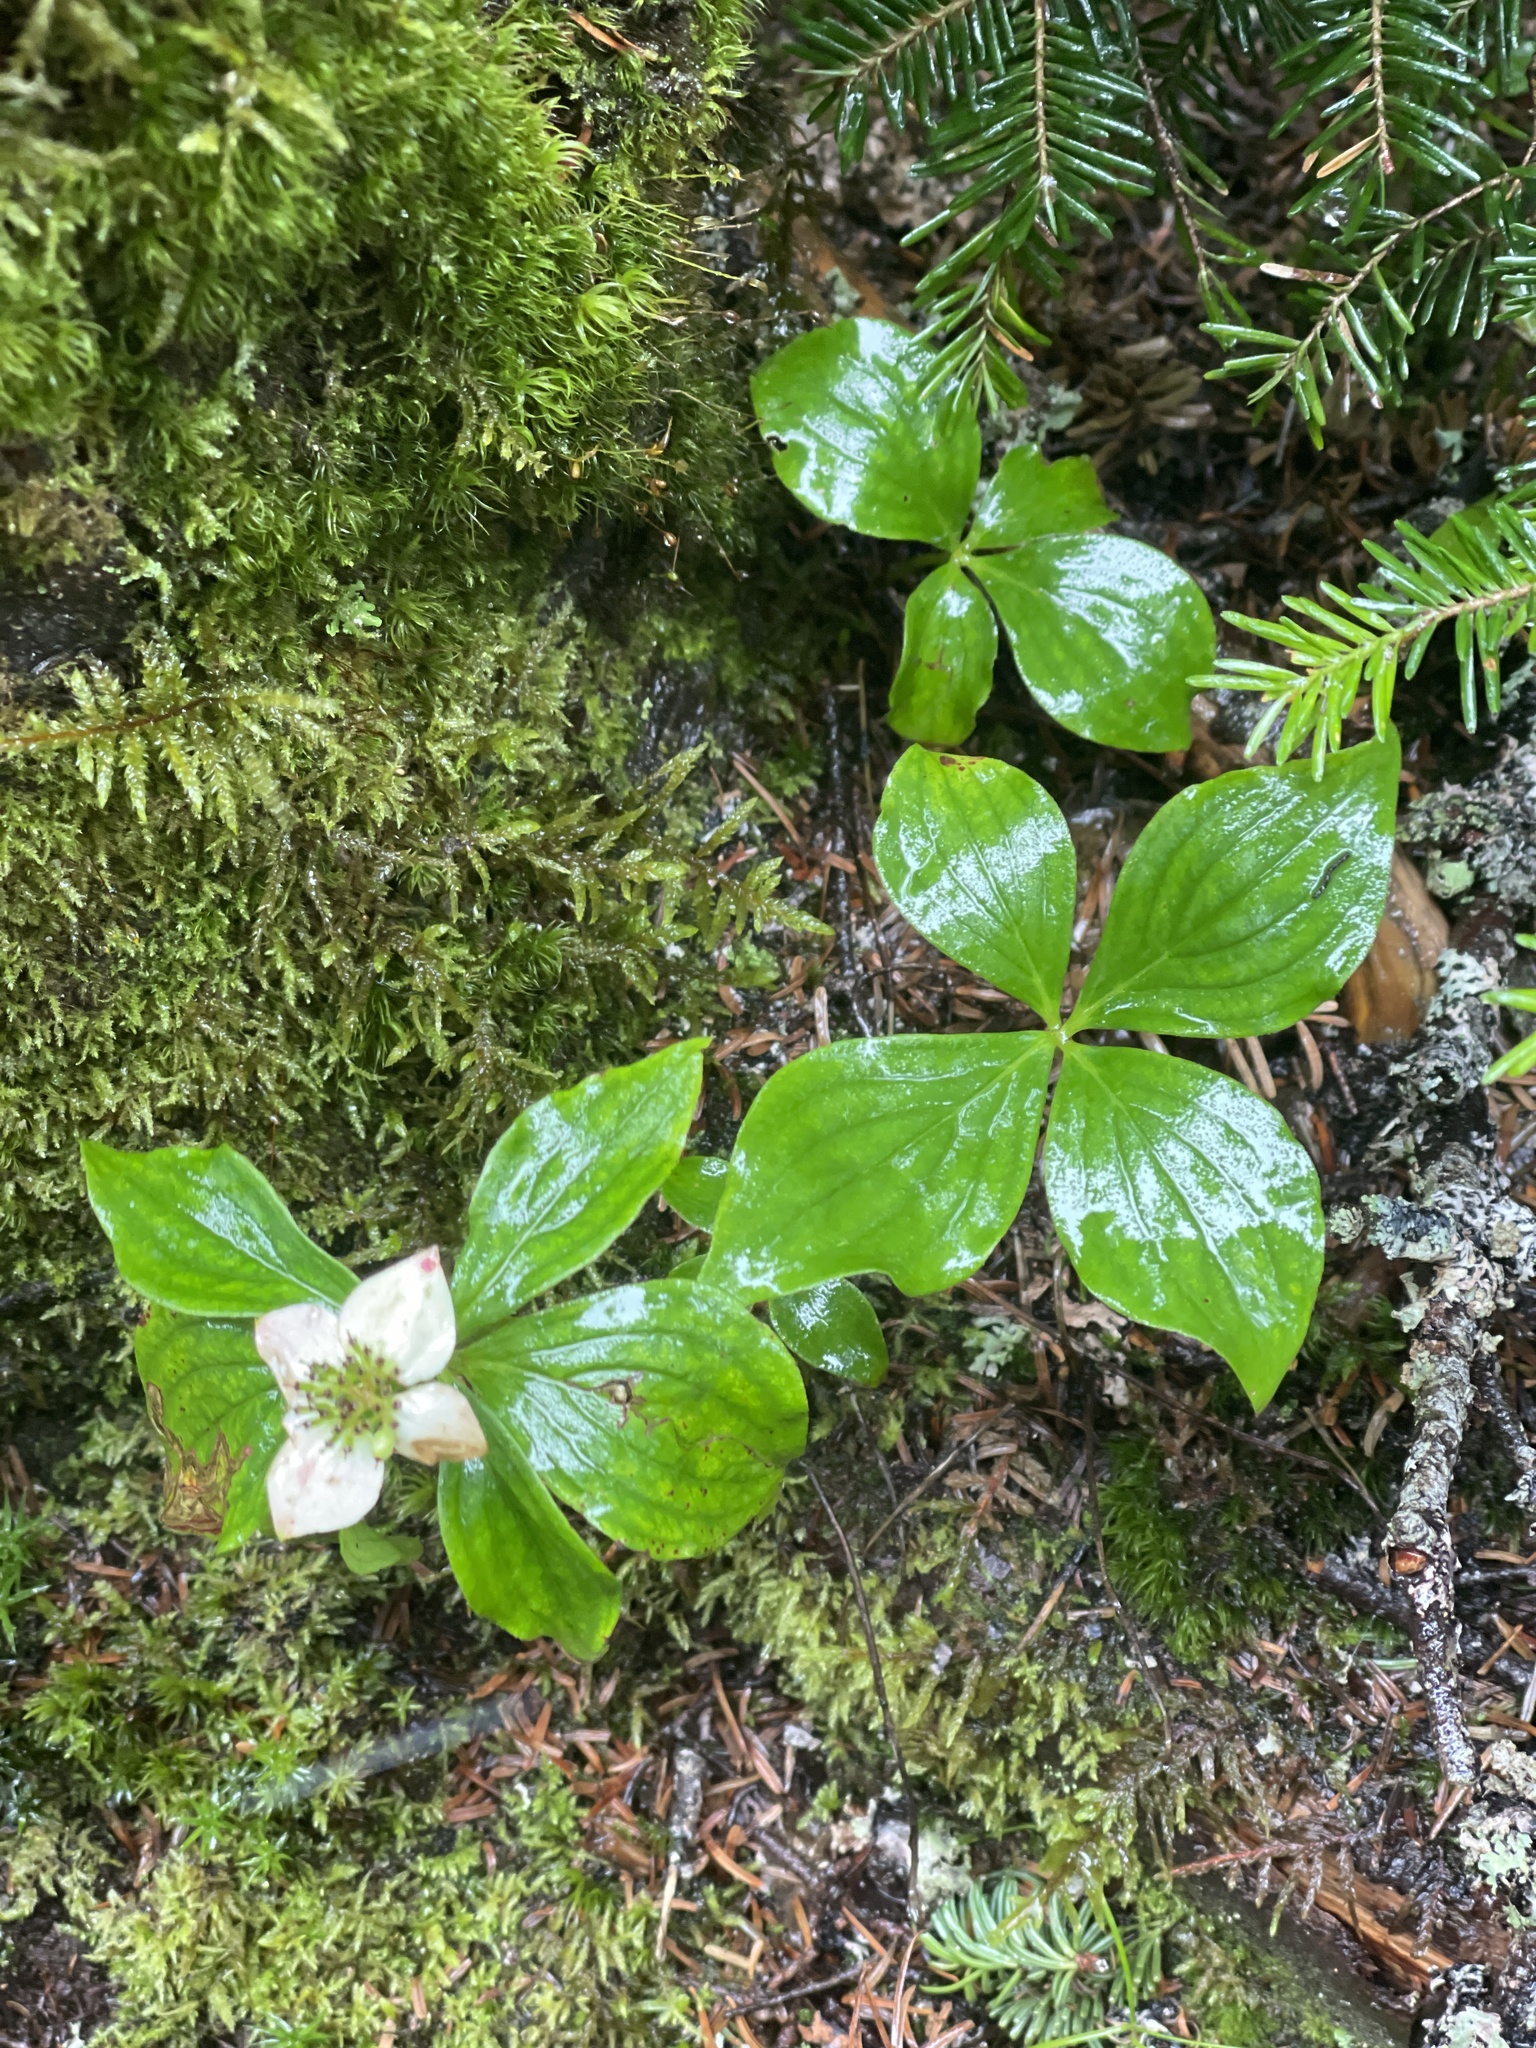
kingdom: Plantae
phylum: Tracheophyta
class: Magnoliopsida
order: Cornales
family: Cornaceae
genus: Cornus
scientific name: Cornus canadensis
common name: Creeping dogwood
